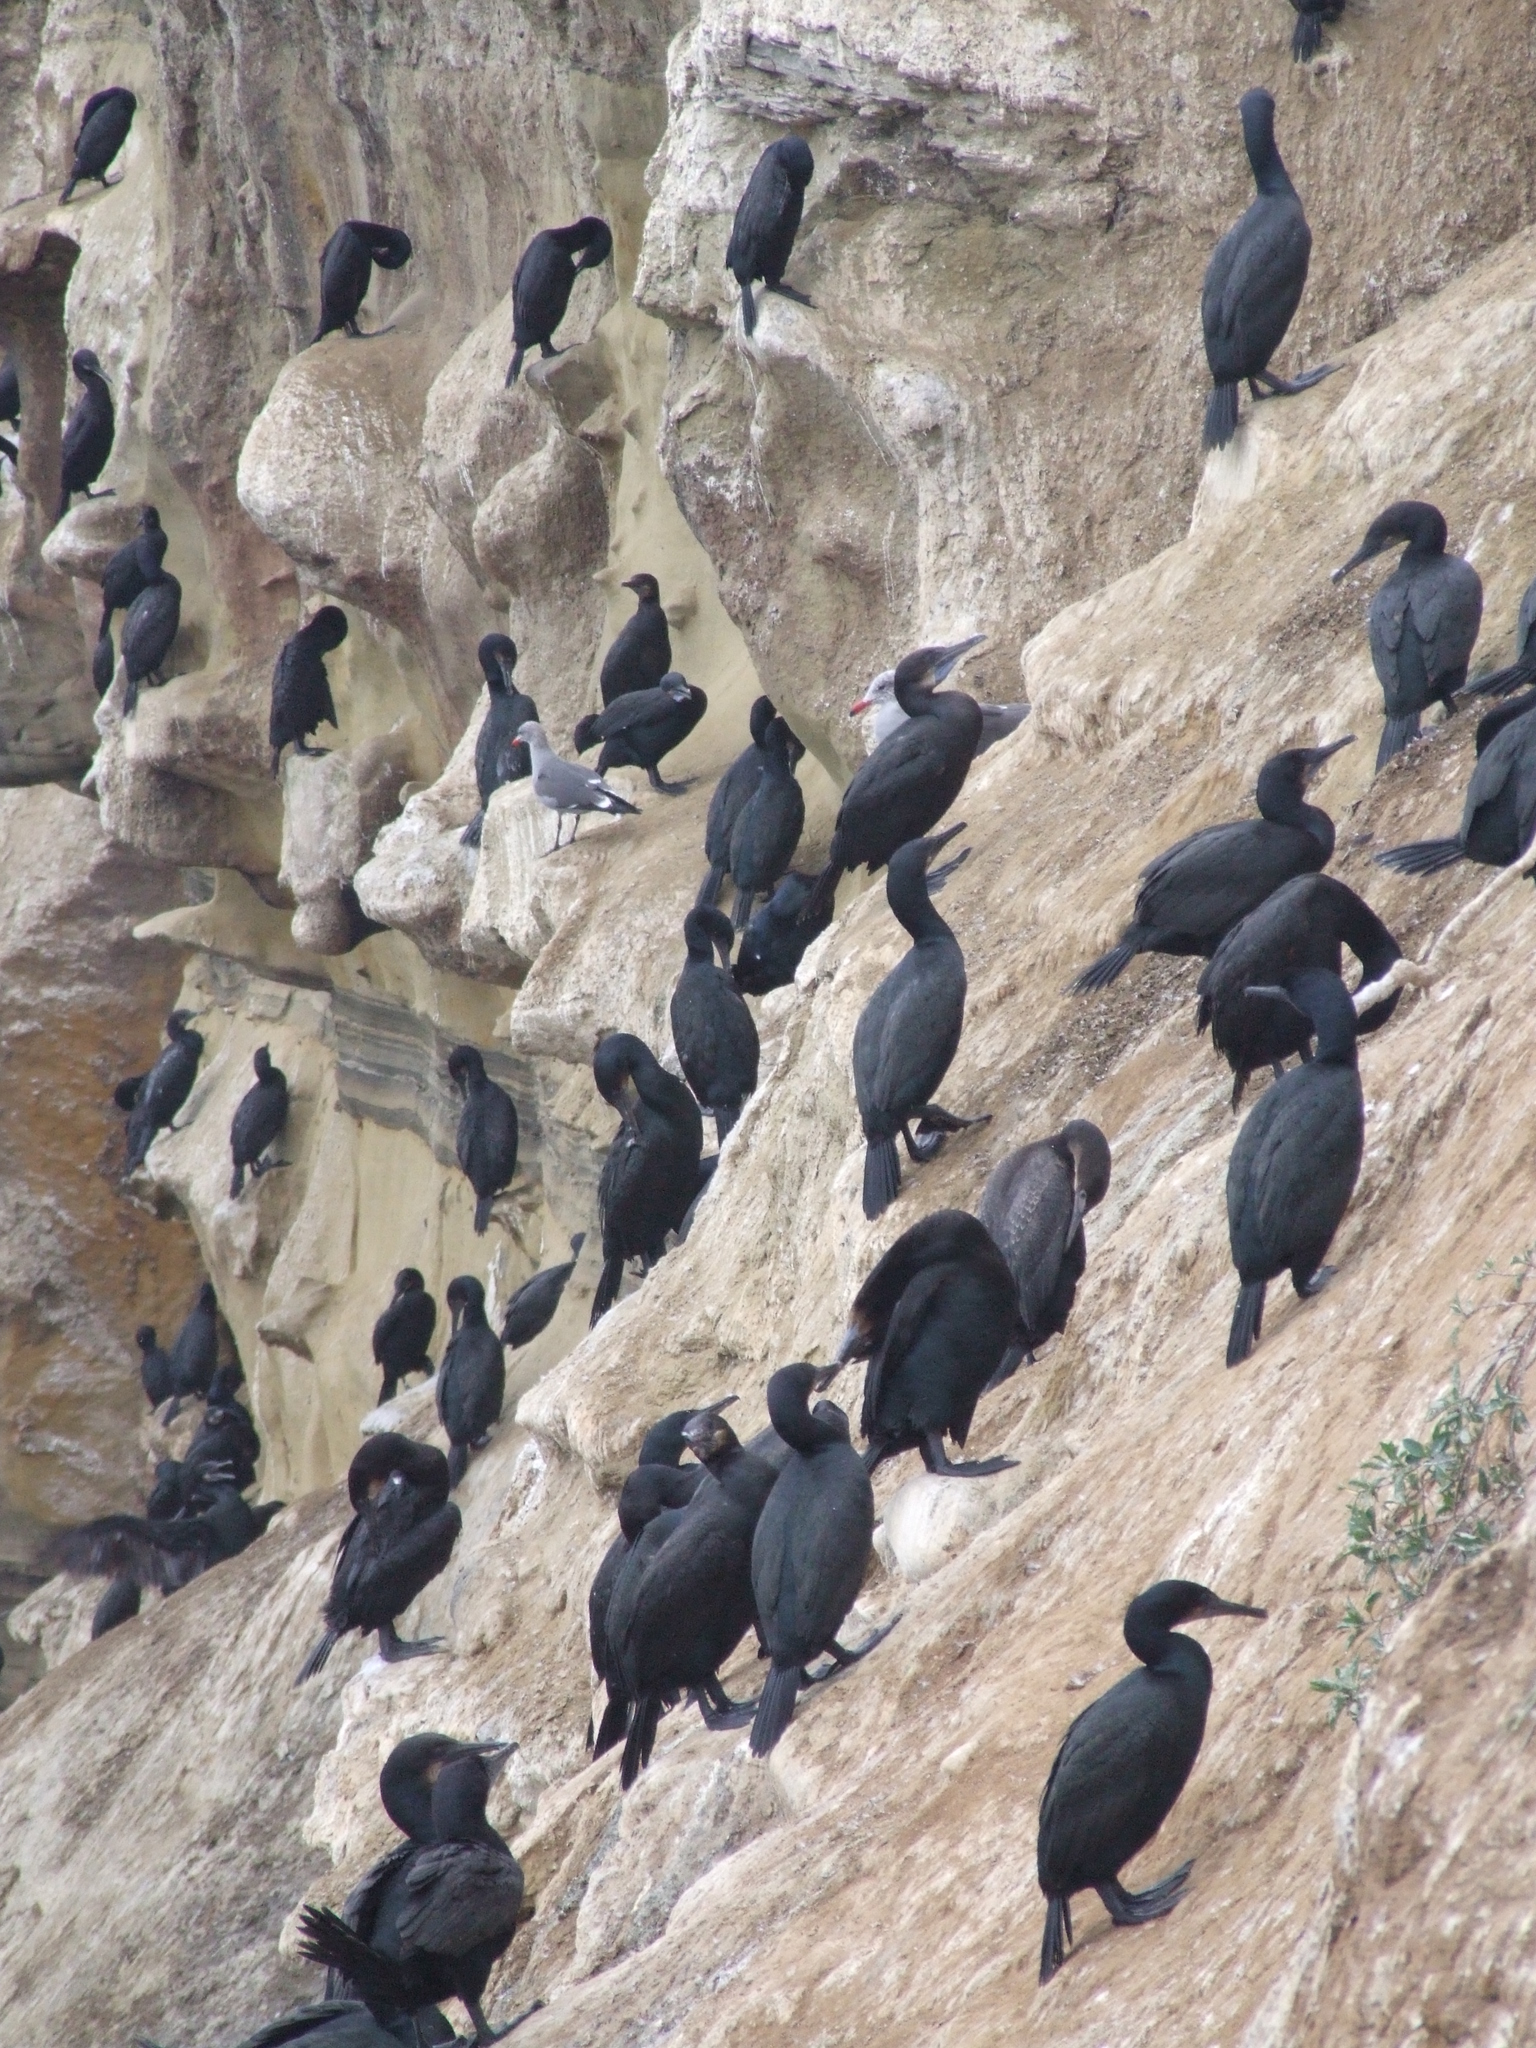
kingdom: Animalia
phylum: Chordata
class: Aves
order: Suliformes
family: Phalacrocoracidae
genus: Urile
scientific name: Urile penicillatus
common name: Brandt's cormorant
